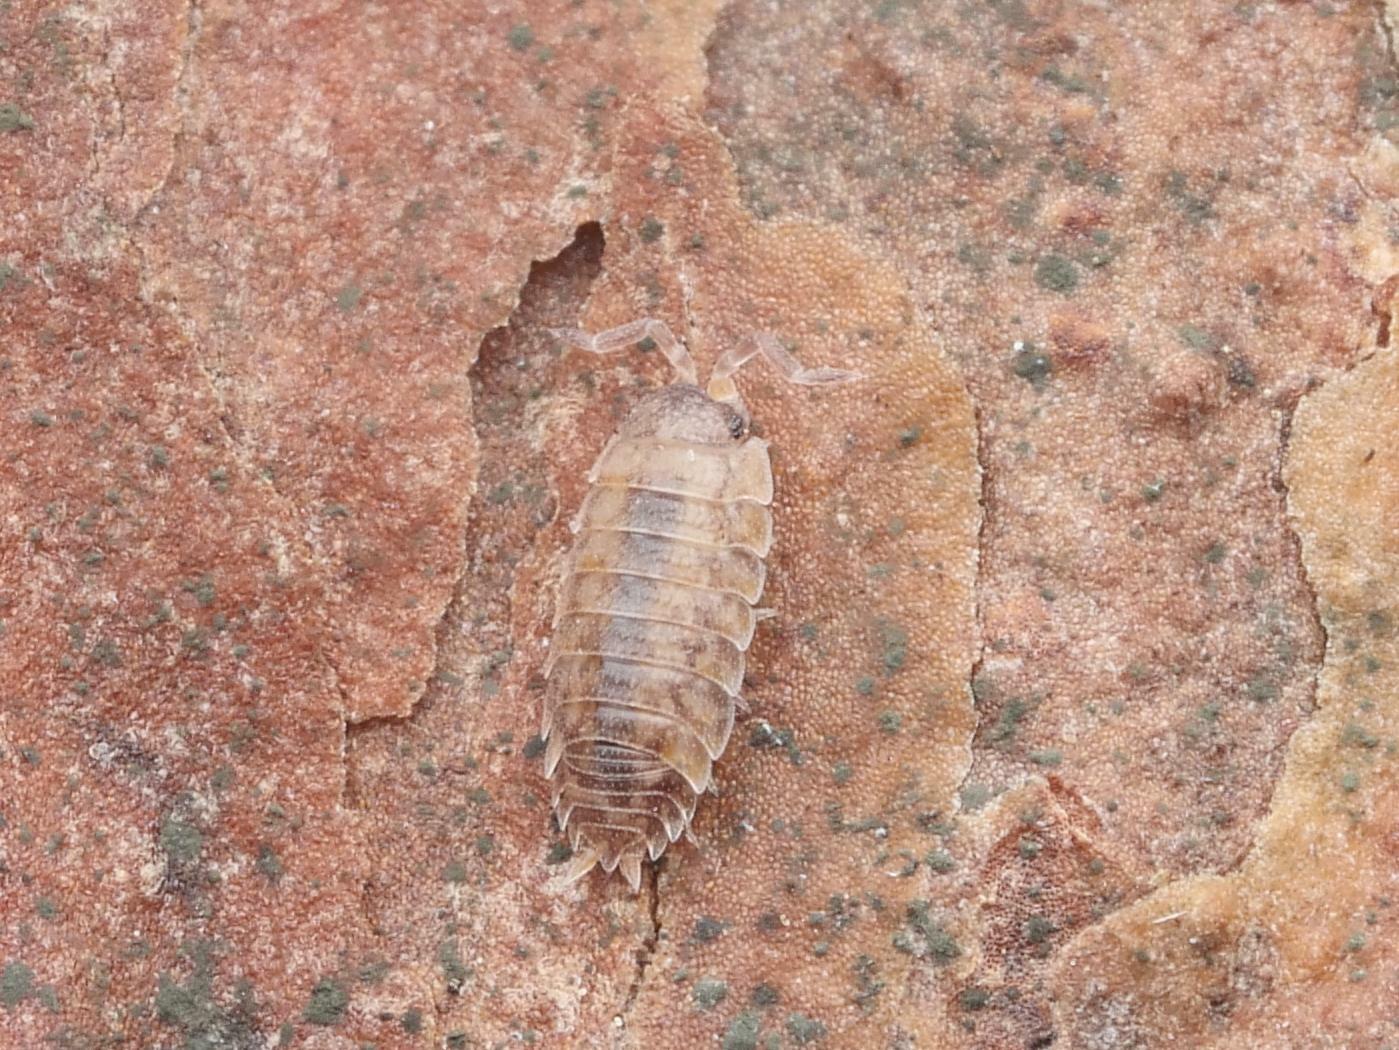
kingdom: Animalia
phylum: Arthropoda
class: Malacostraca
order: Isopoda
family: Porcellionidae
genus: Porcellio
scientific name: Porcellio scaber
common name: Common rough woodlouse
